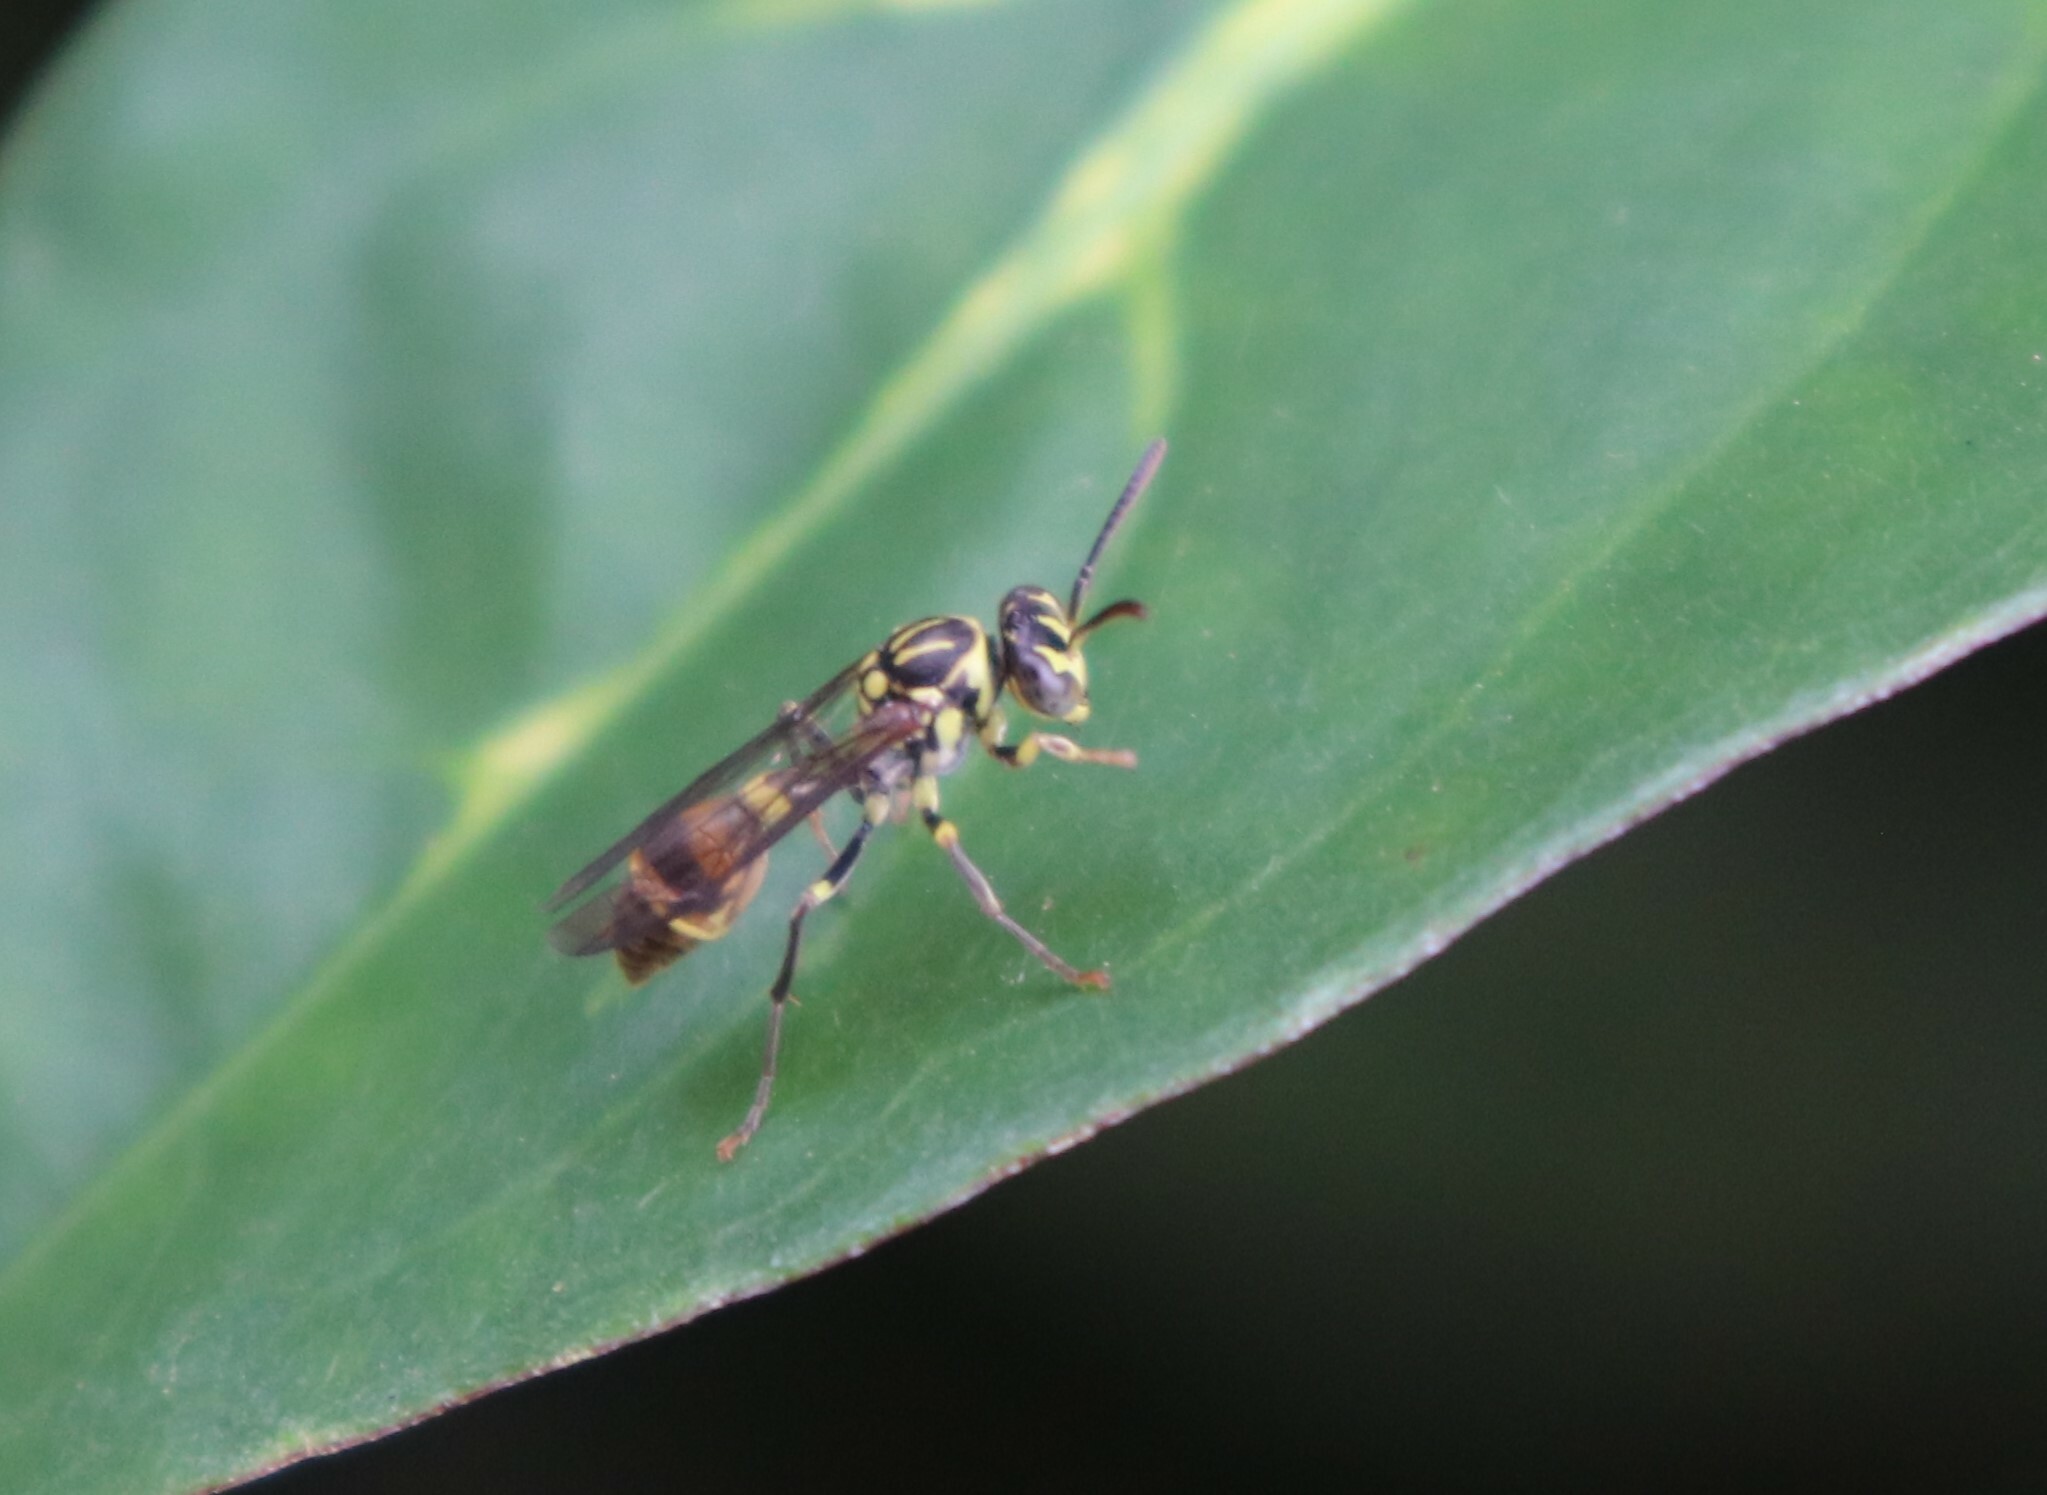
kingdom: Animalia
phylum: Arthropoda
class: Insecta
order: Hymenoptera
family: Vespidae
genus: Ropalidia
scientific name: Ropalidia flavobrunnea
